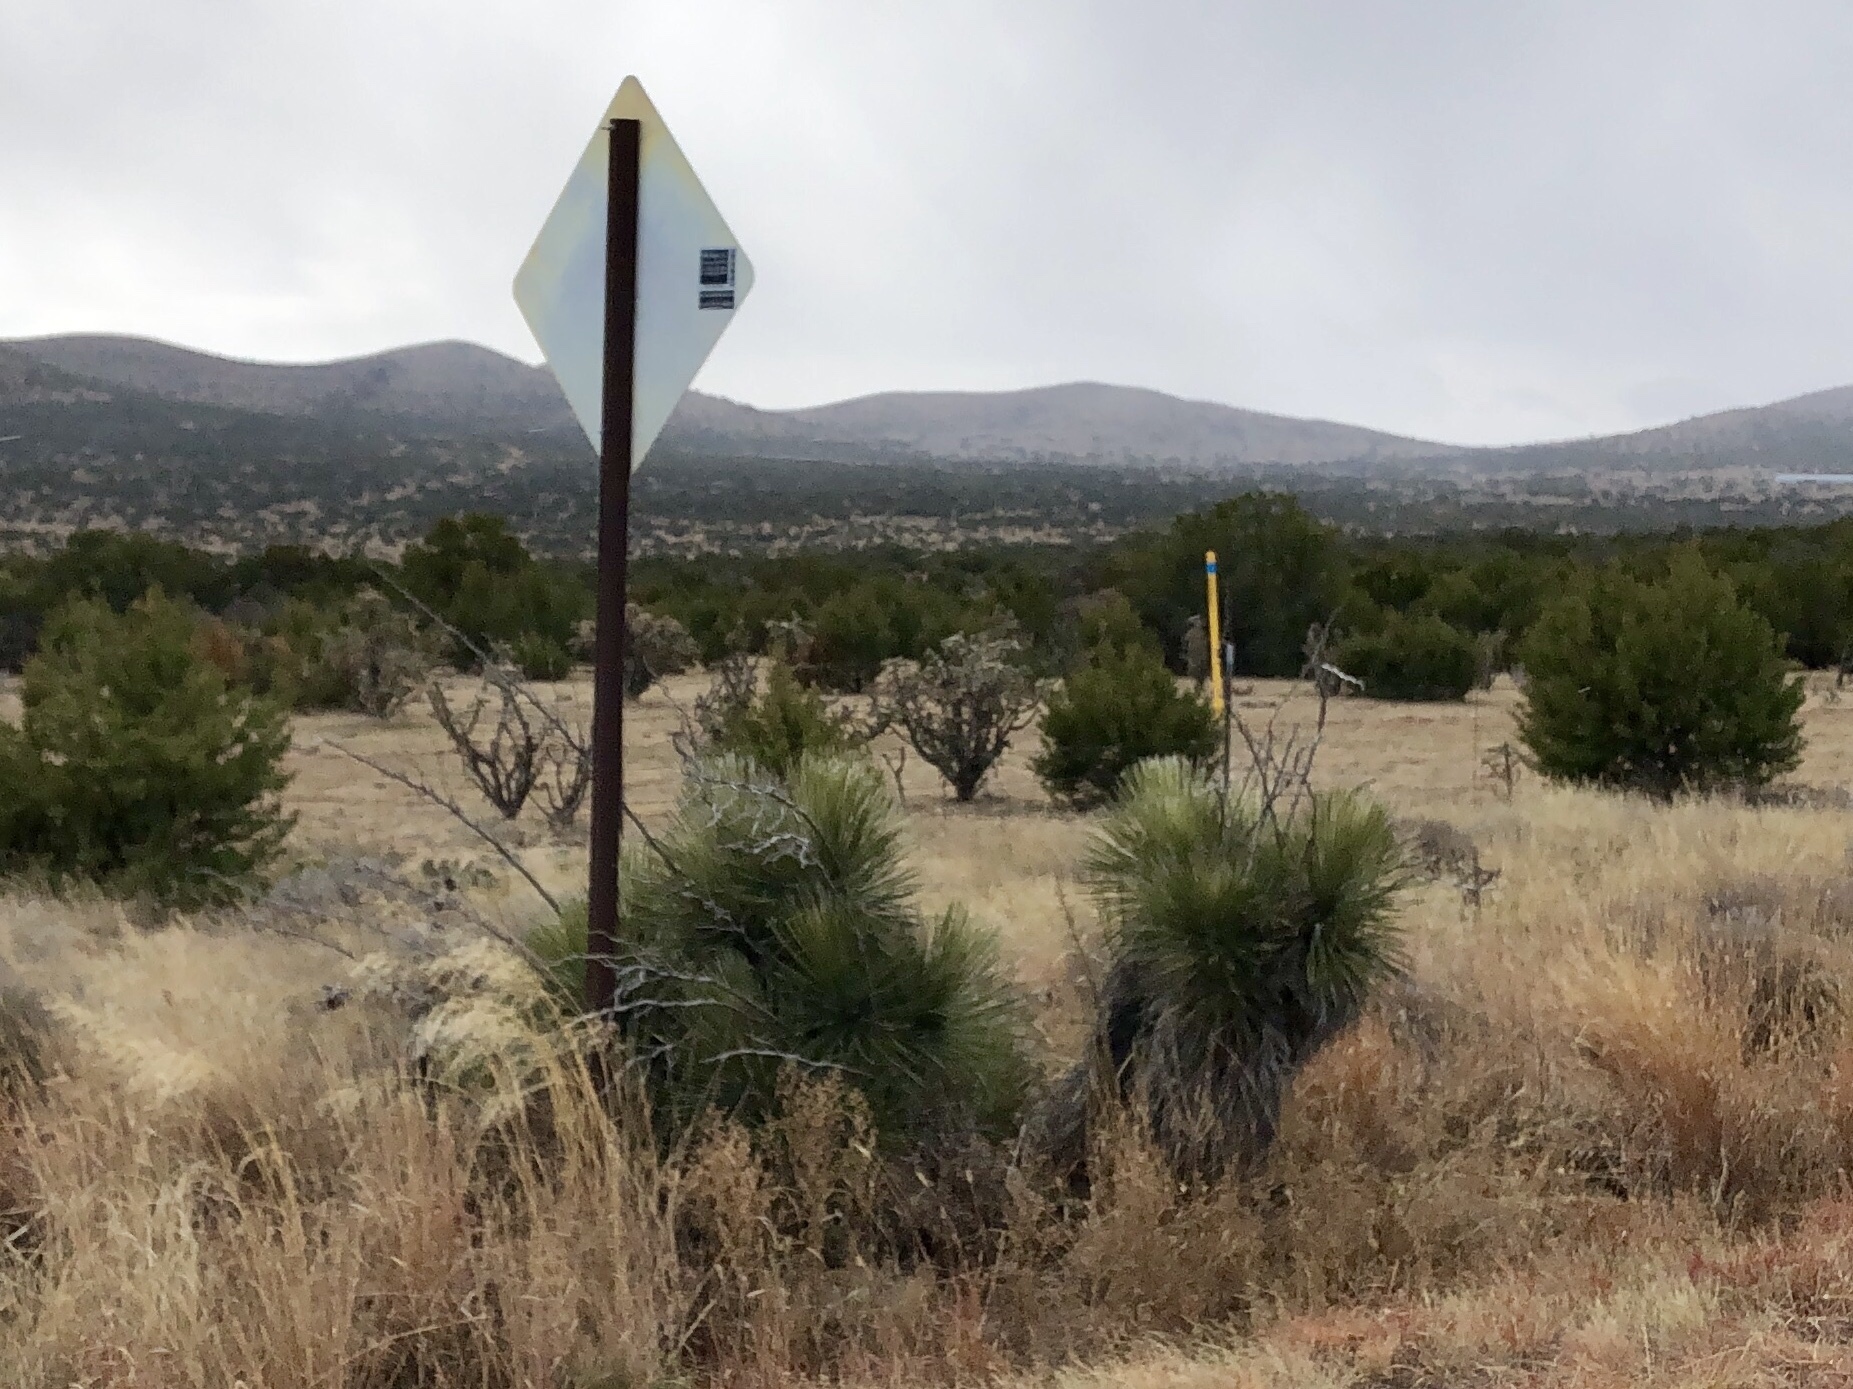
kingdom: Plantae
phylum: Tracheophyta
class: Liliopsida
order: Asparagales
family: Asparagaceae
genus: Yucca
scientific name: Yucca elata
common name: Palmella
